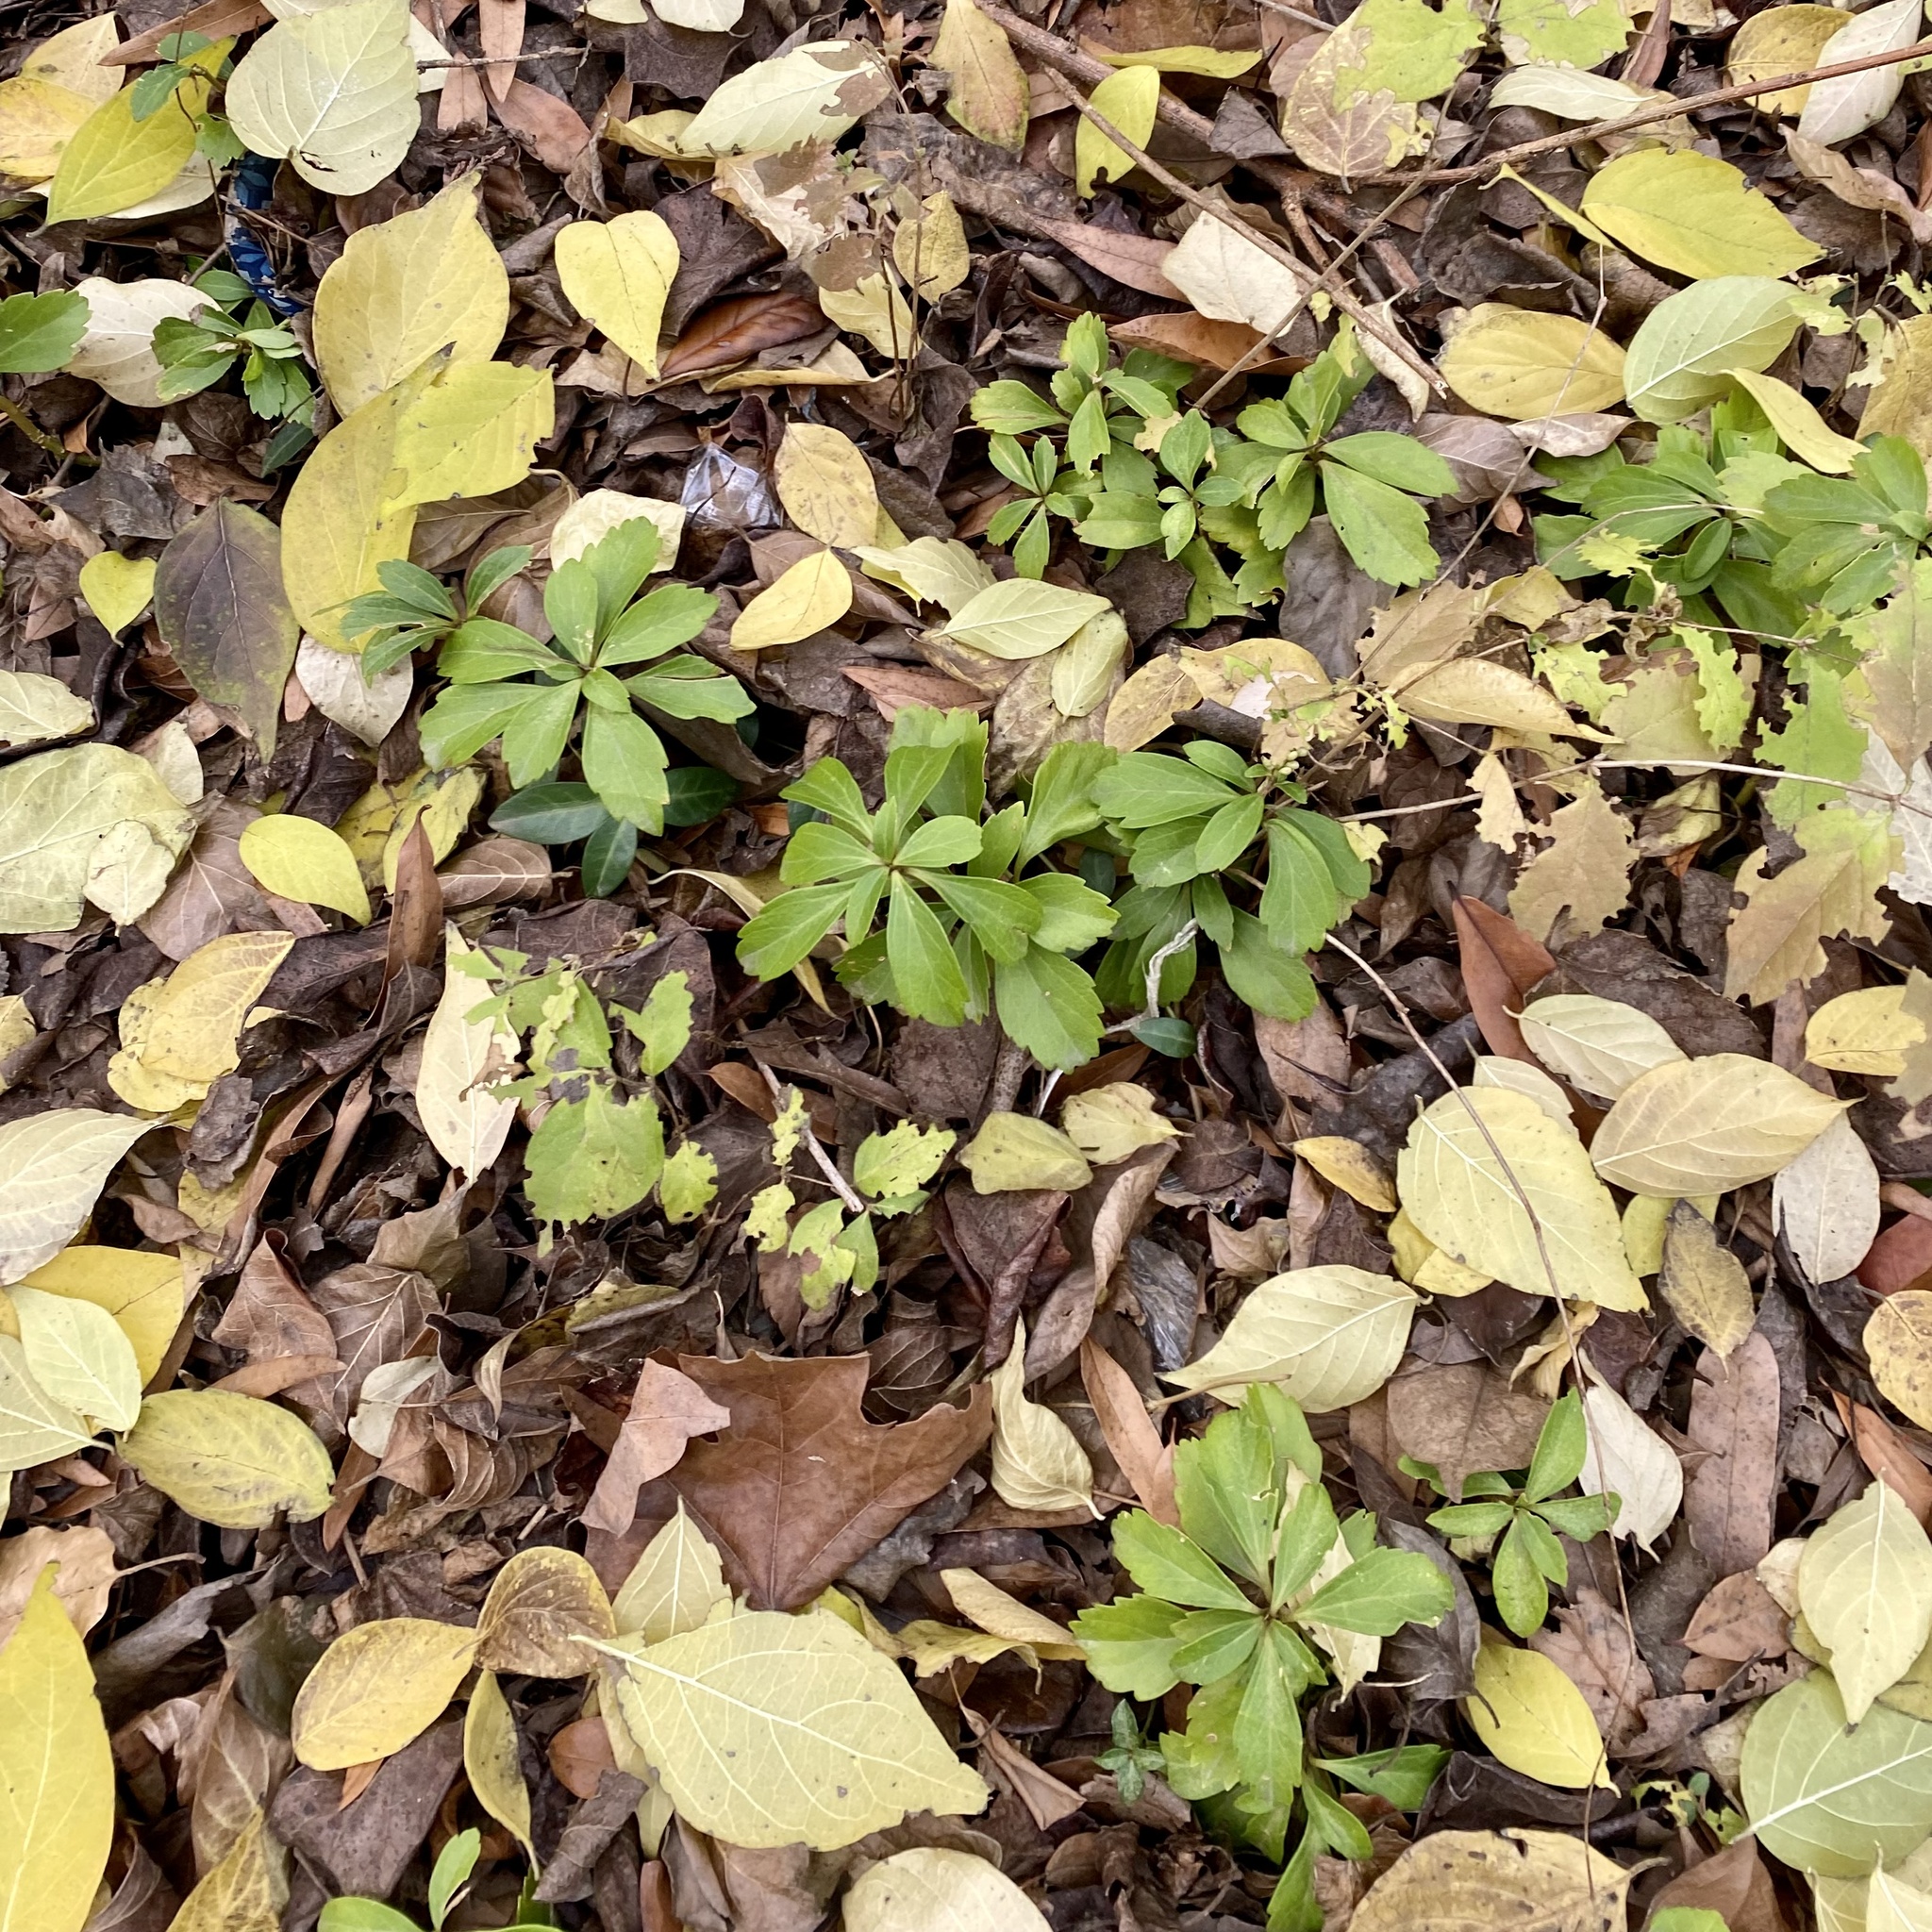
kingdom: Plantae
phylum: Tracheophyta
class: Magnoliopsida
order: Buxales
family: Buxaceae
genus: Pachysandra
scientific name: Pachysandra terminalis
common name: Japanese pachysandra
